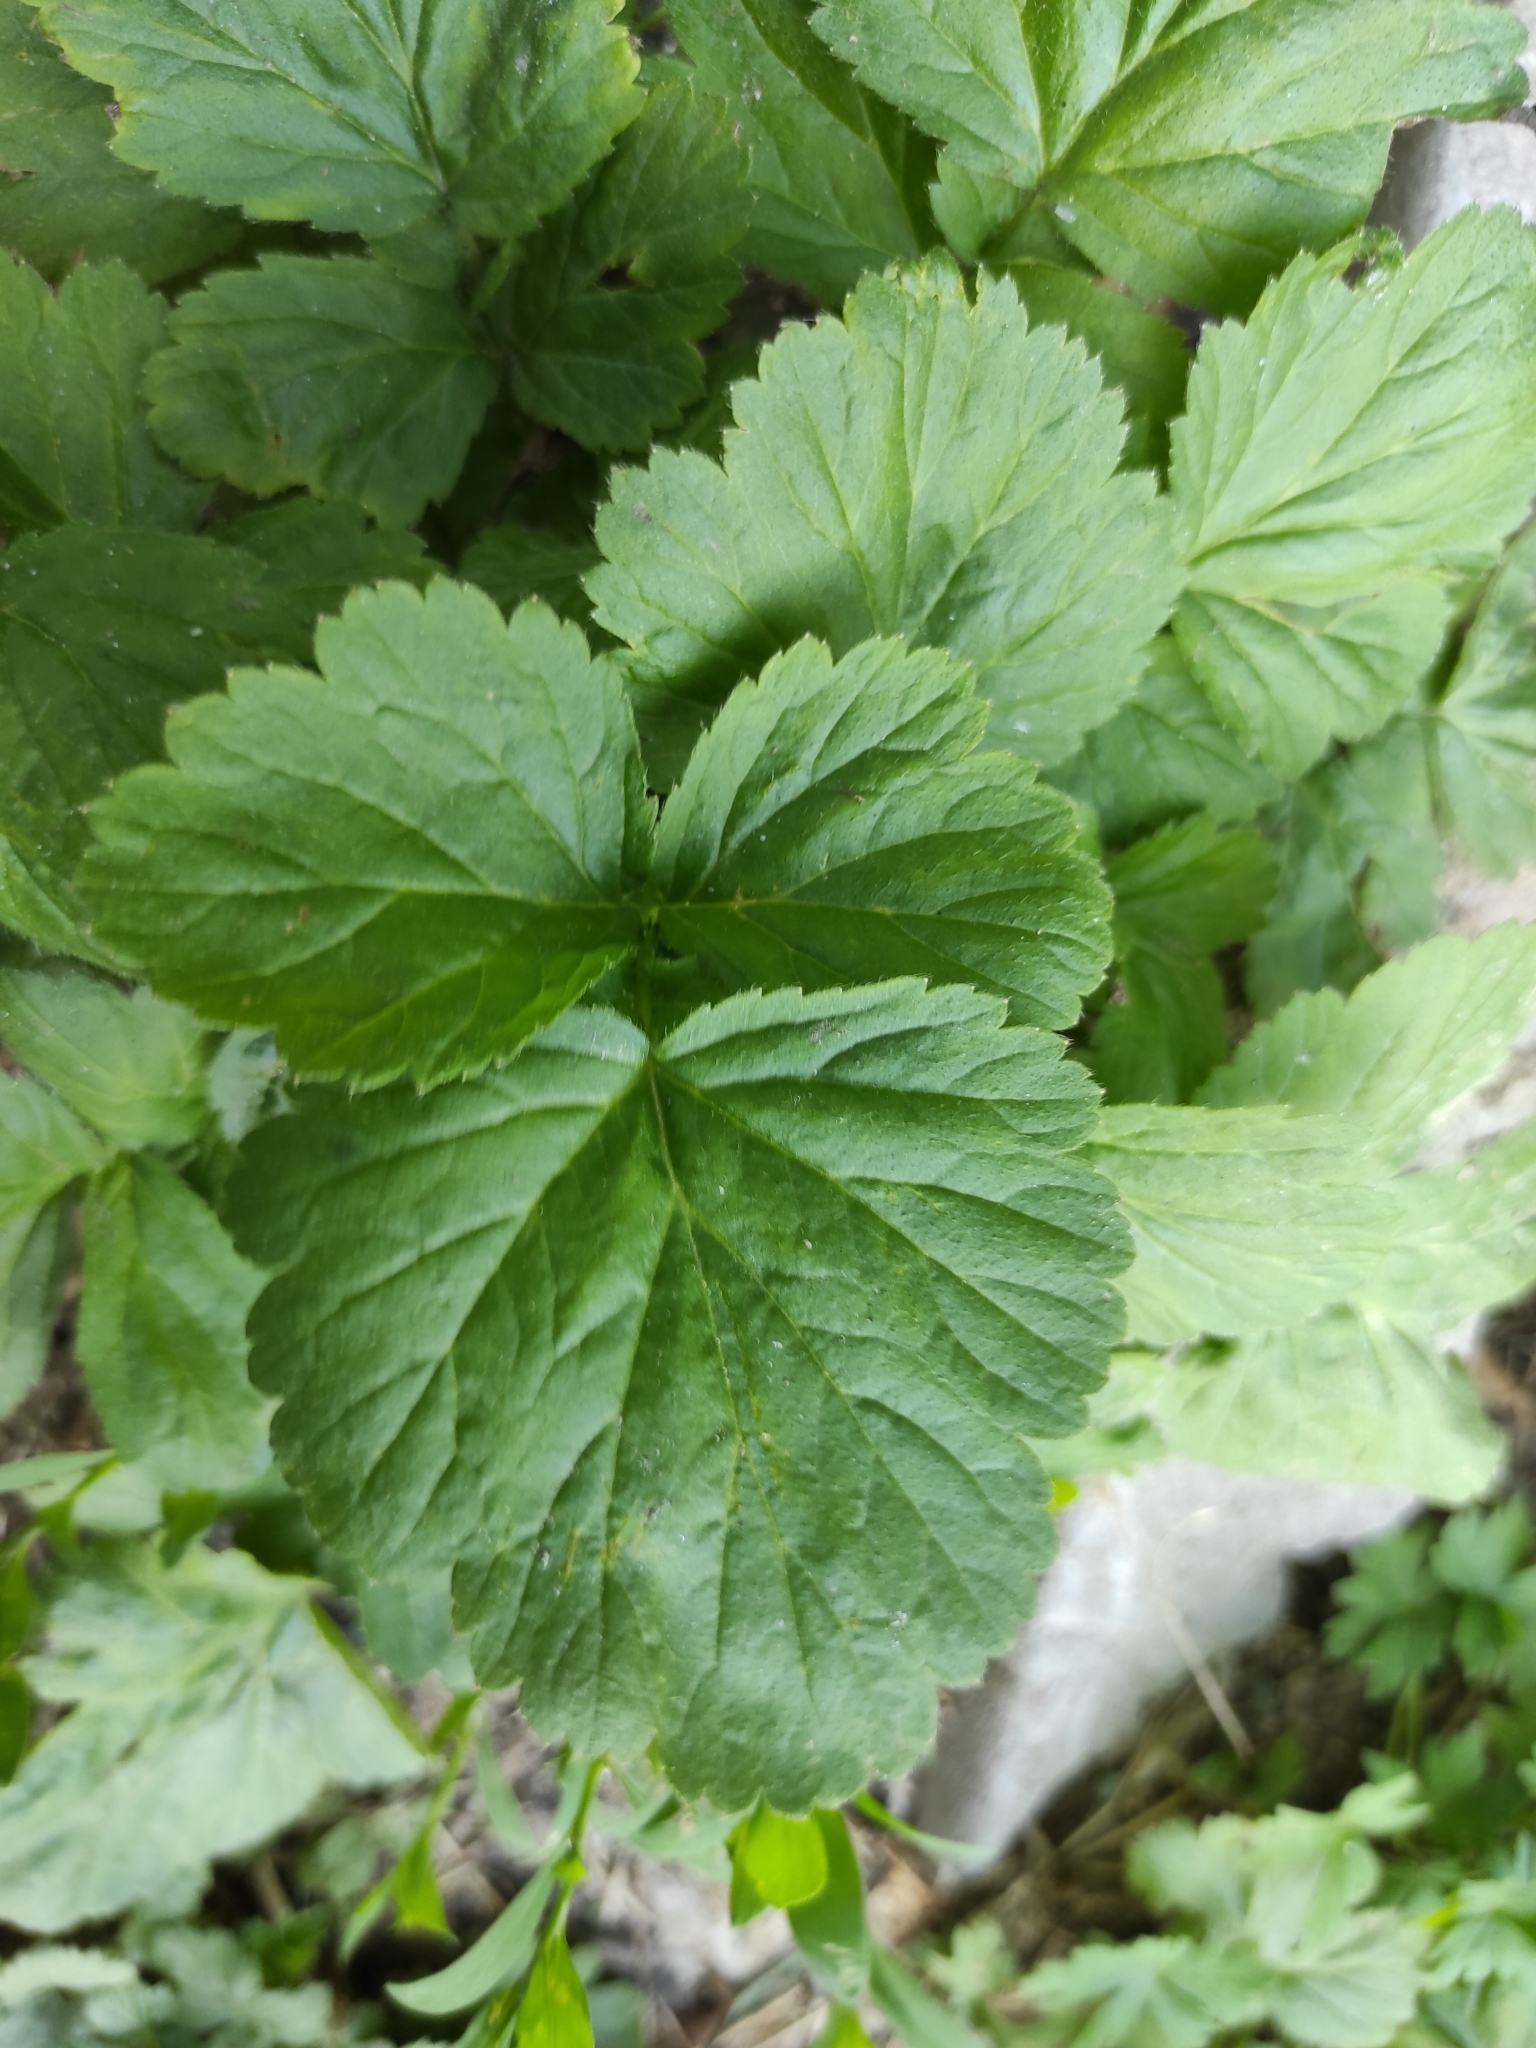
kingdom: Plantae
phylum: Tracheophyta
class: Magnoliopsida
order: Rosales
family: Rosaceae
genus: Geum
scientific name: Geum aleppicum
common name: Yellow avens
